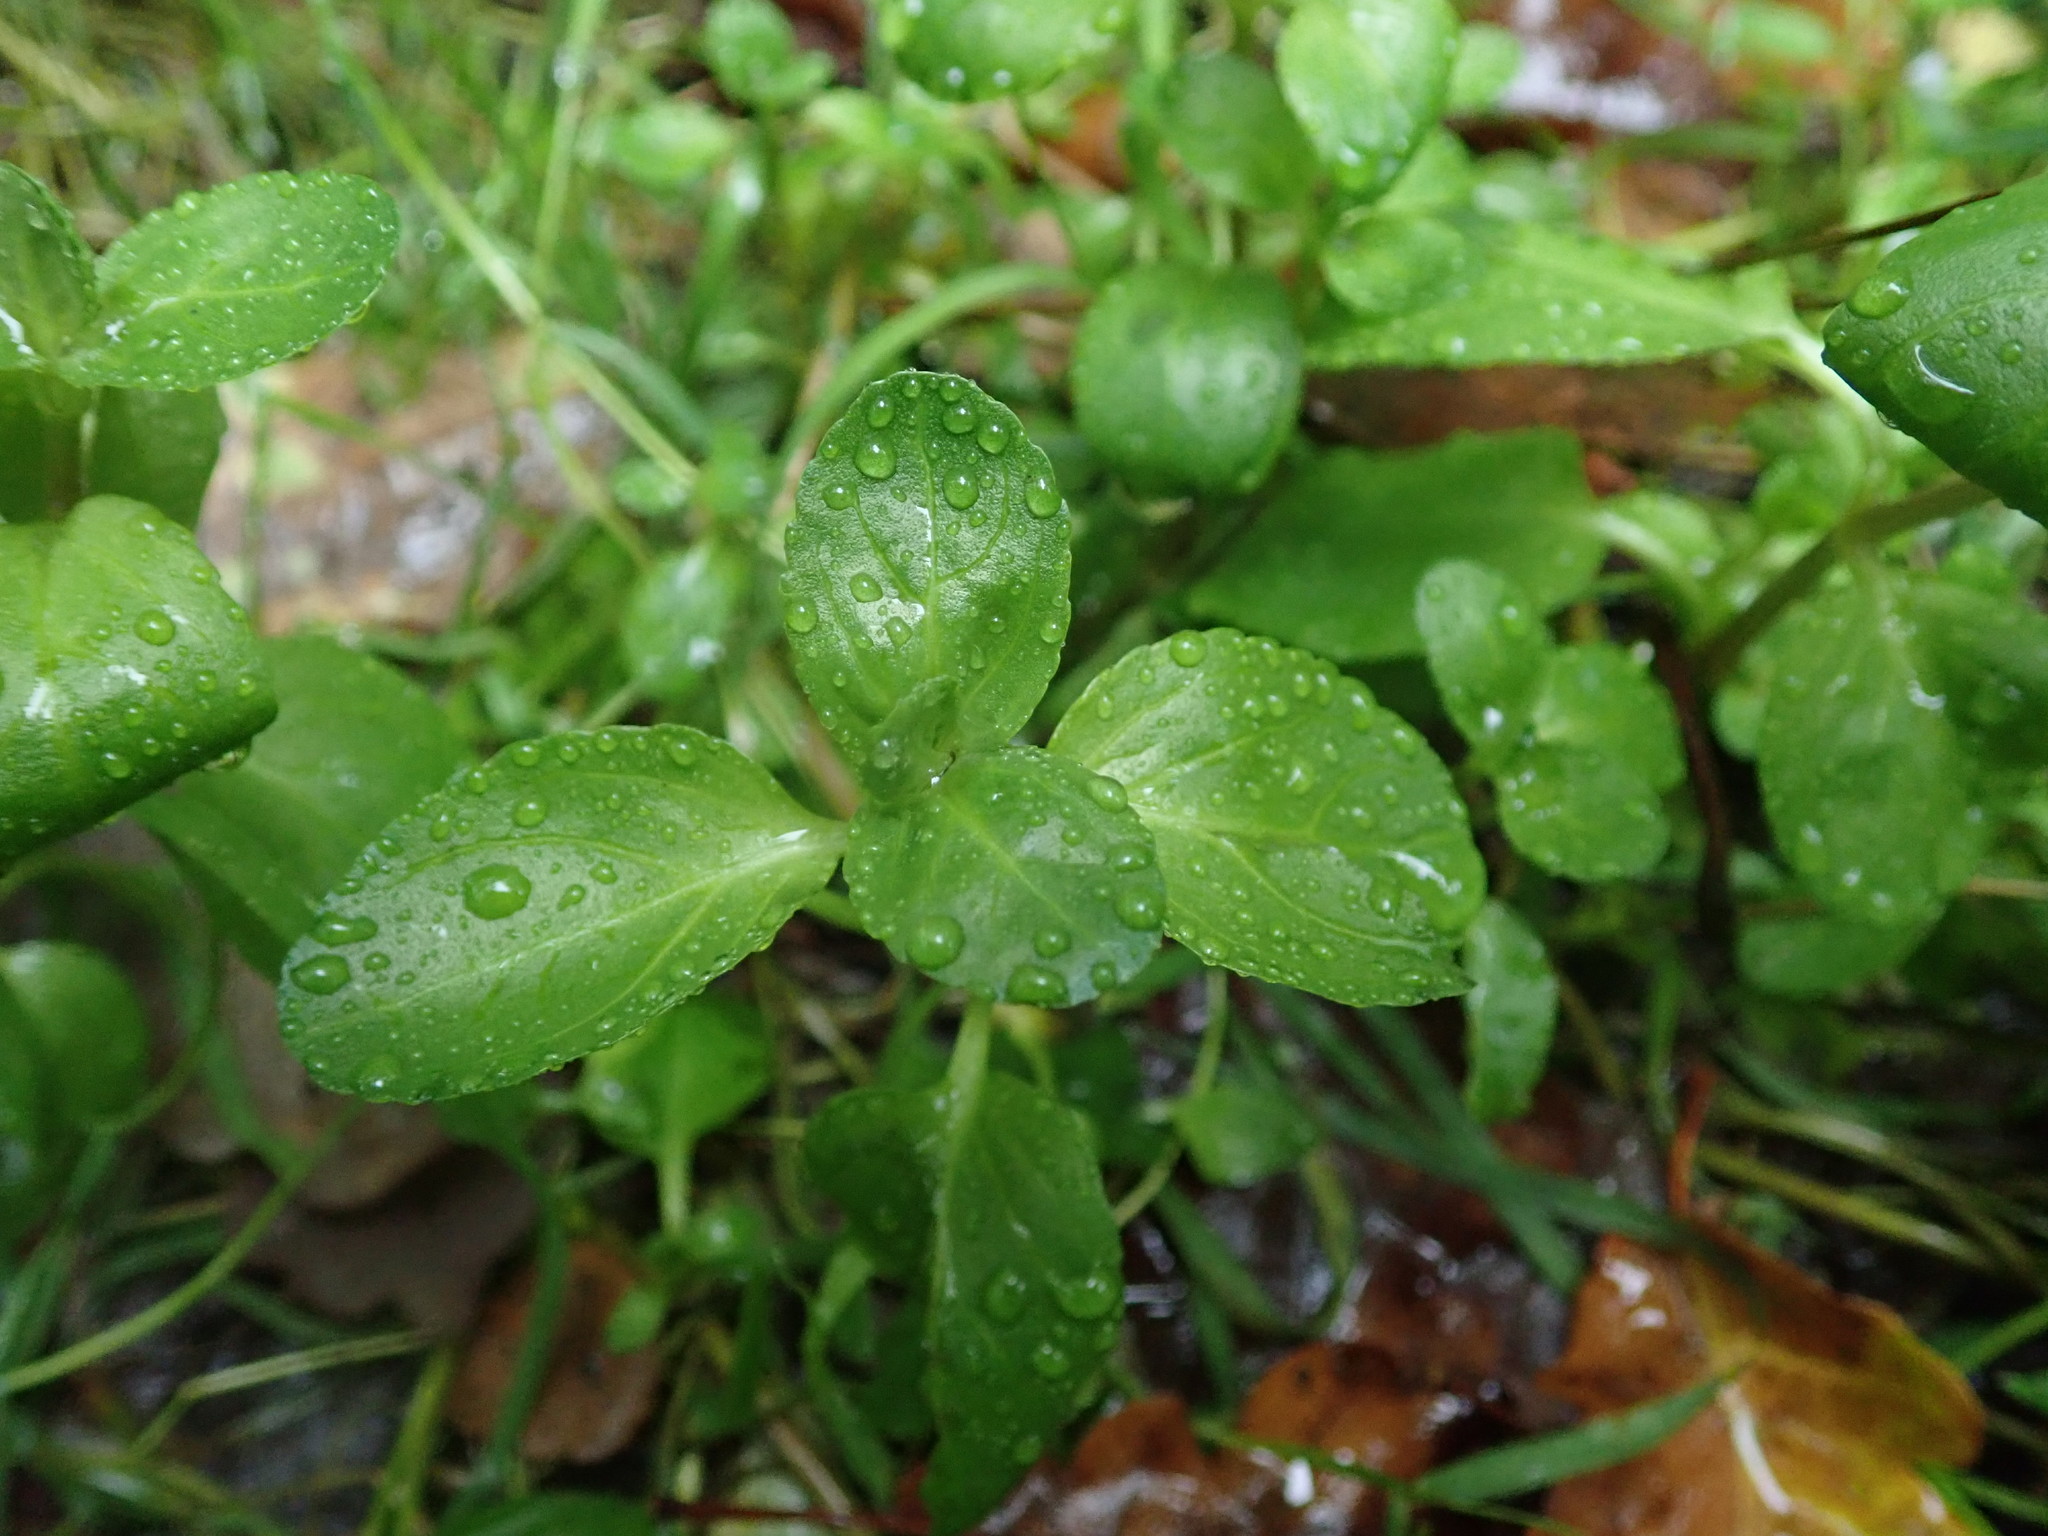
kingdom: Plantae
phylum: Tracheophyta
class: Magnoliopsida
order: Lamiales
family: Plantaginaceae
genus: Veronica
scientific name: Veronica beccabunga
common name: Brooklime
